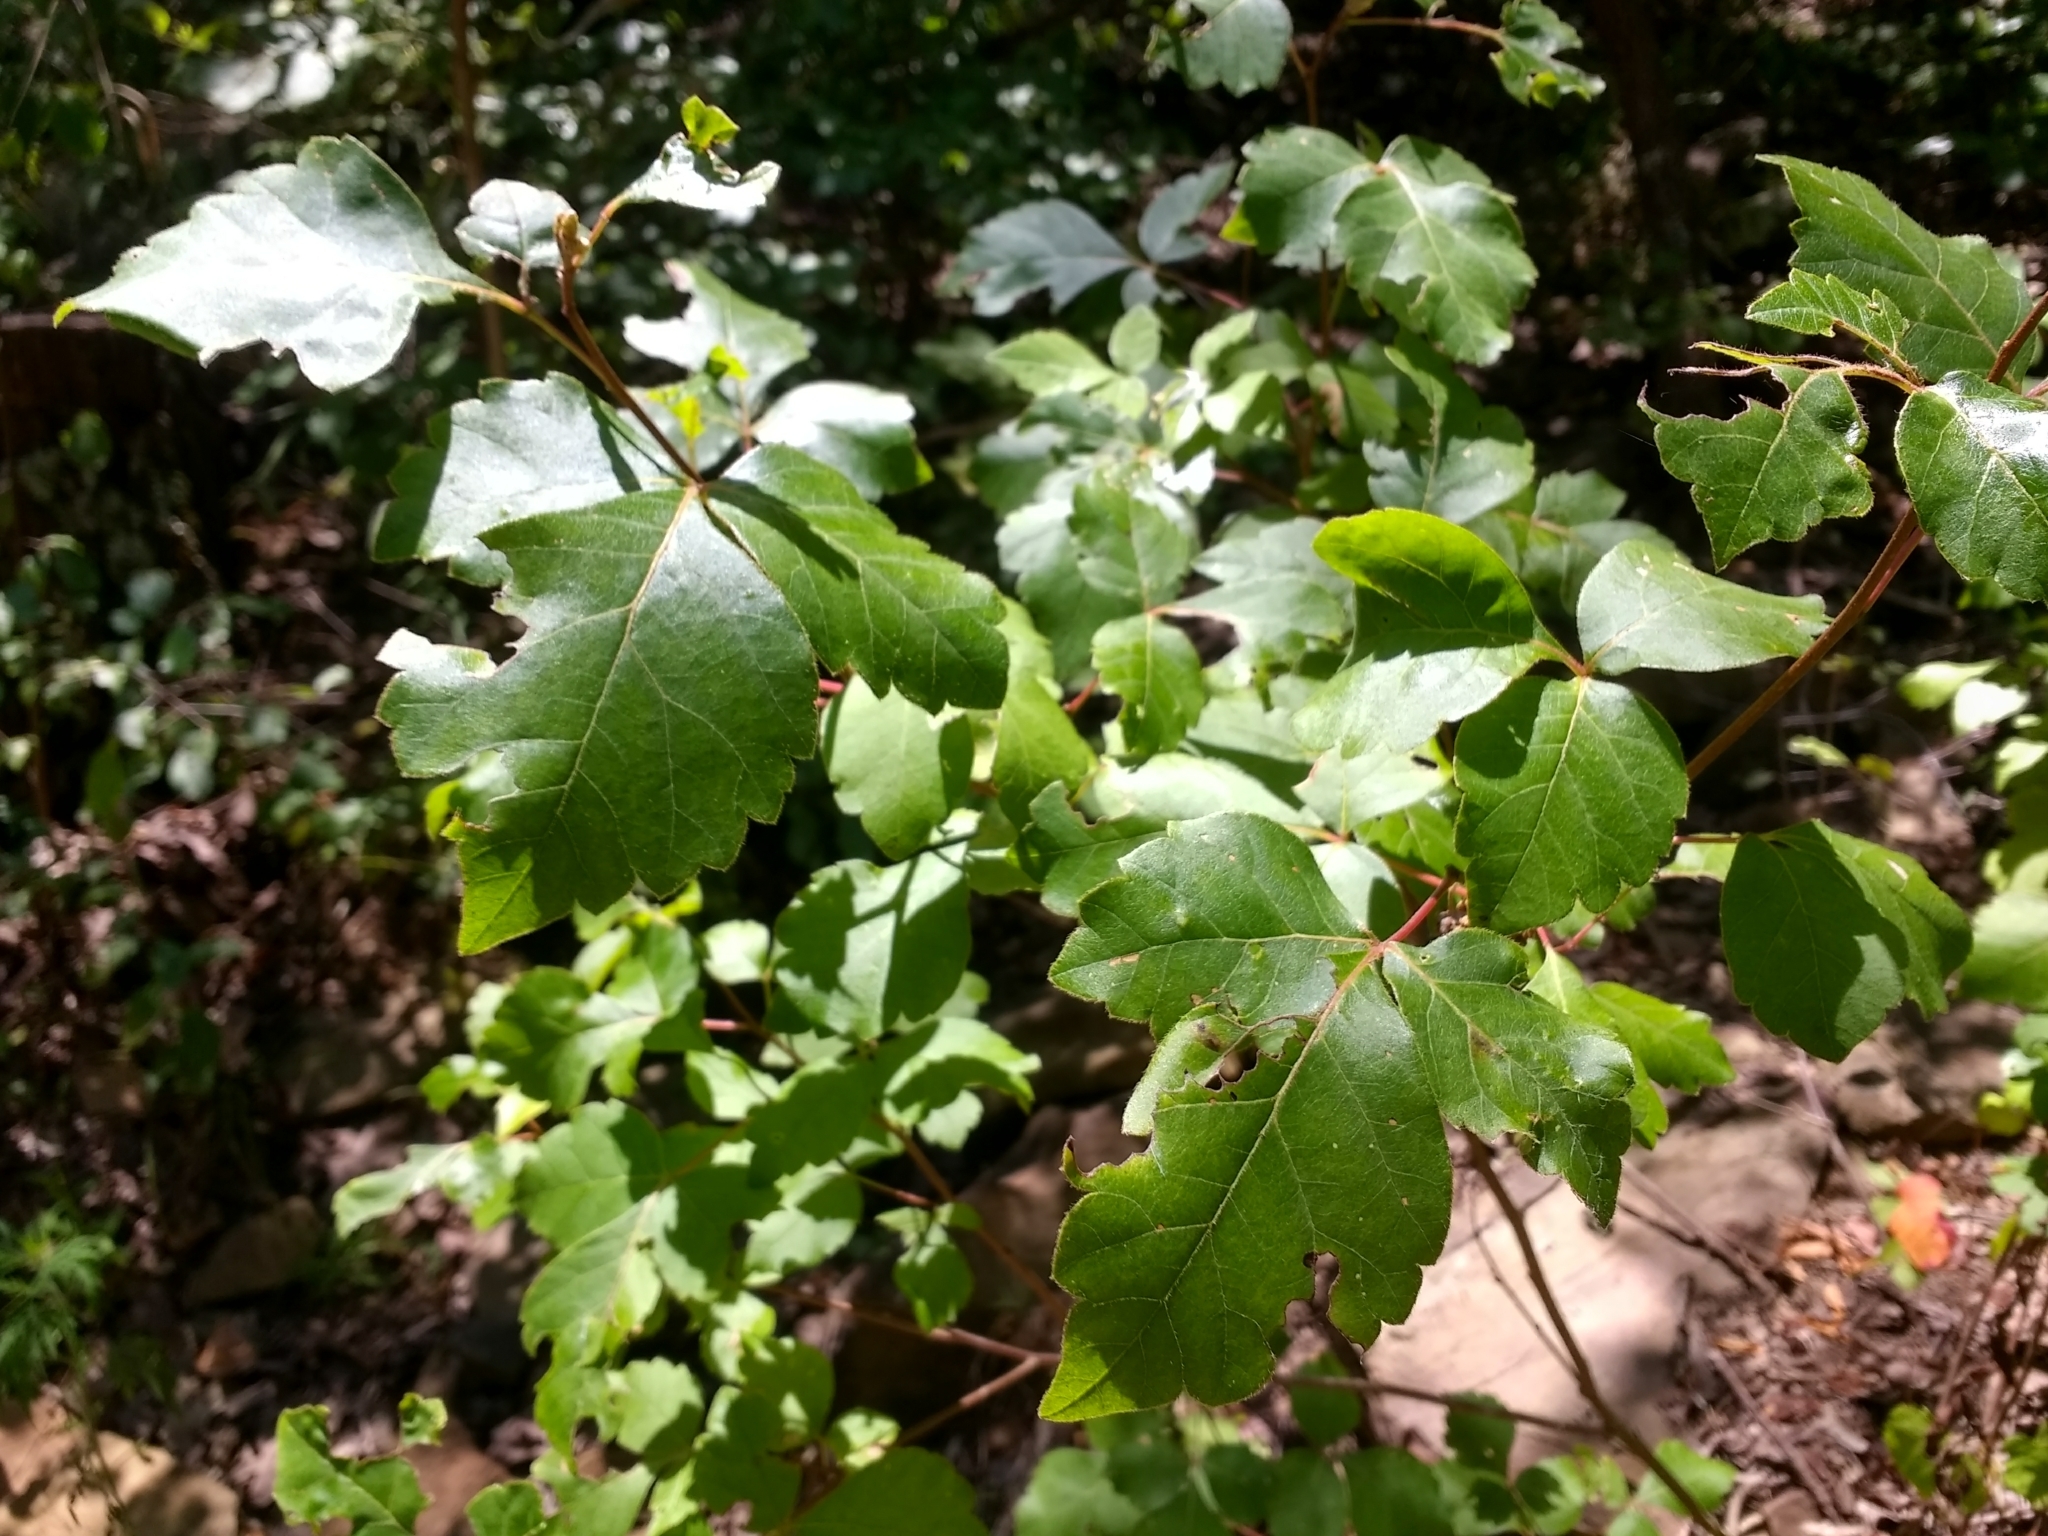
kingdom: Plantae
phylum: Tracheophyta
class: Magnoliopsida
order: Sapindales
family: Anacardiaceae
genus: Rhus
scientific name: Rhus aromatica
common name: Aromatic sumac
